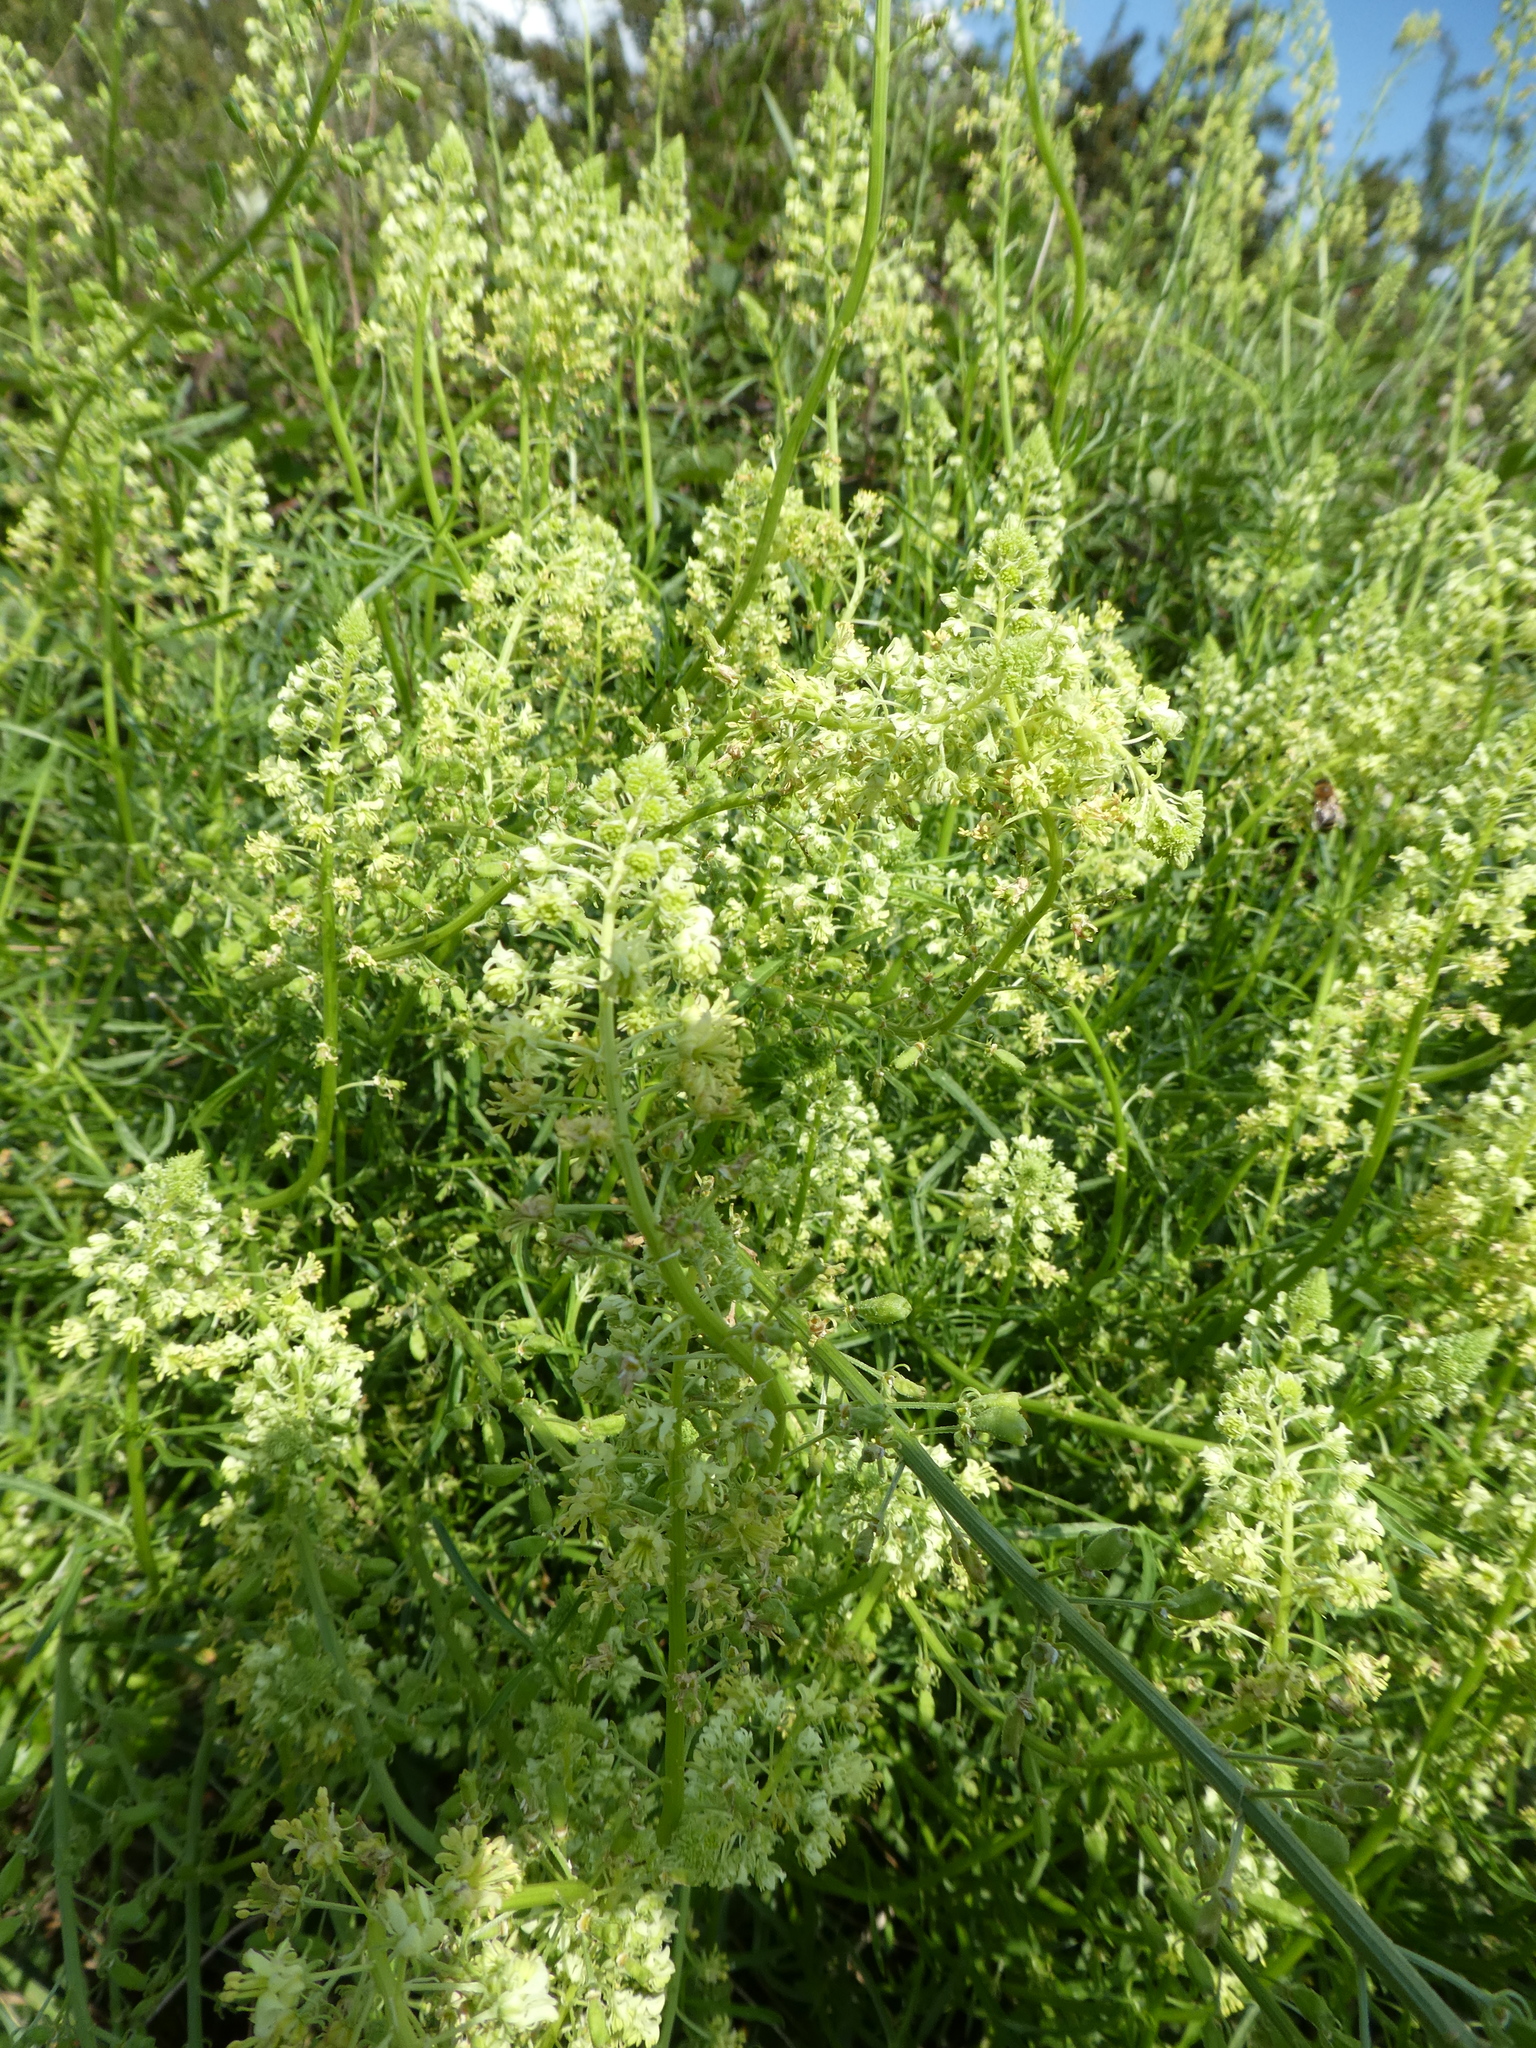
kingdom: Plantae
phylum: Tracheophyta
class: Magnoliopsida
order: Brassicales
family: Resedaceae
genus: Reseda
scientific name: Reseda lutea
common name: Wild mignonette
